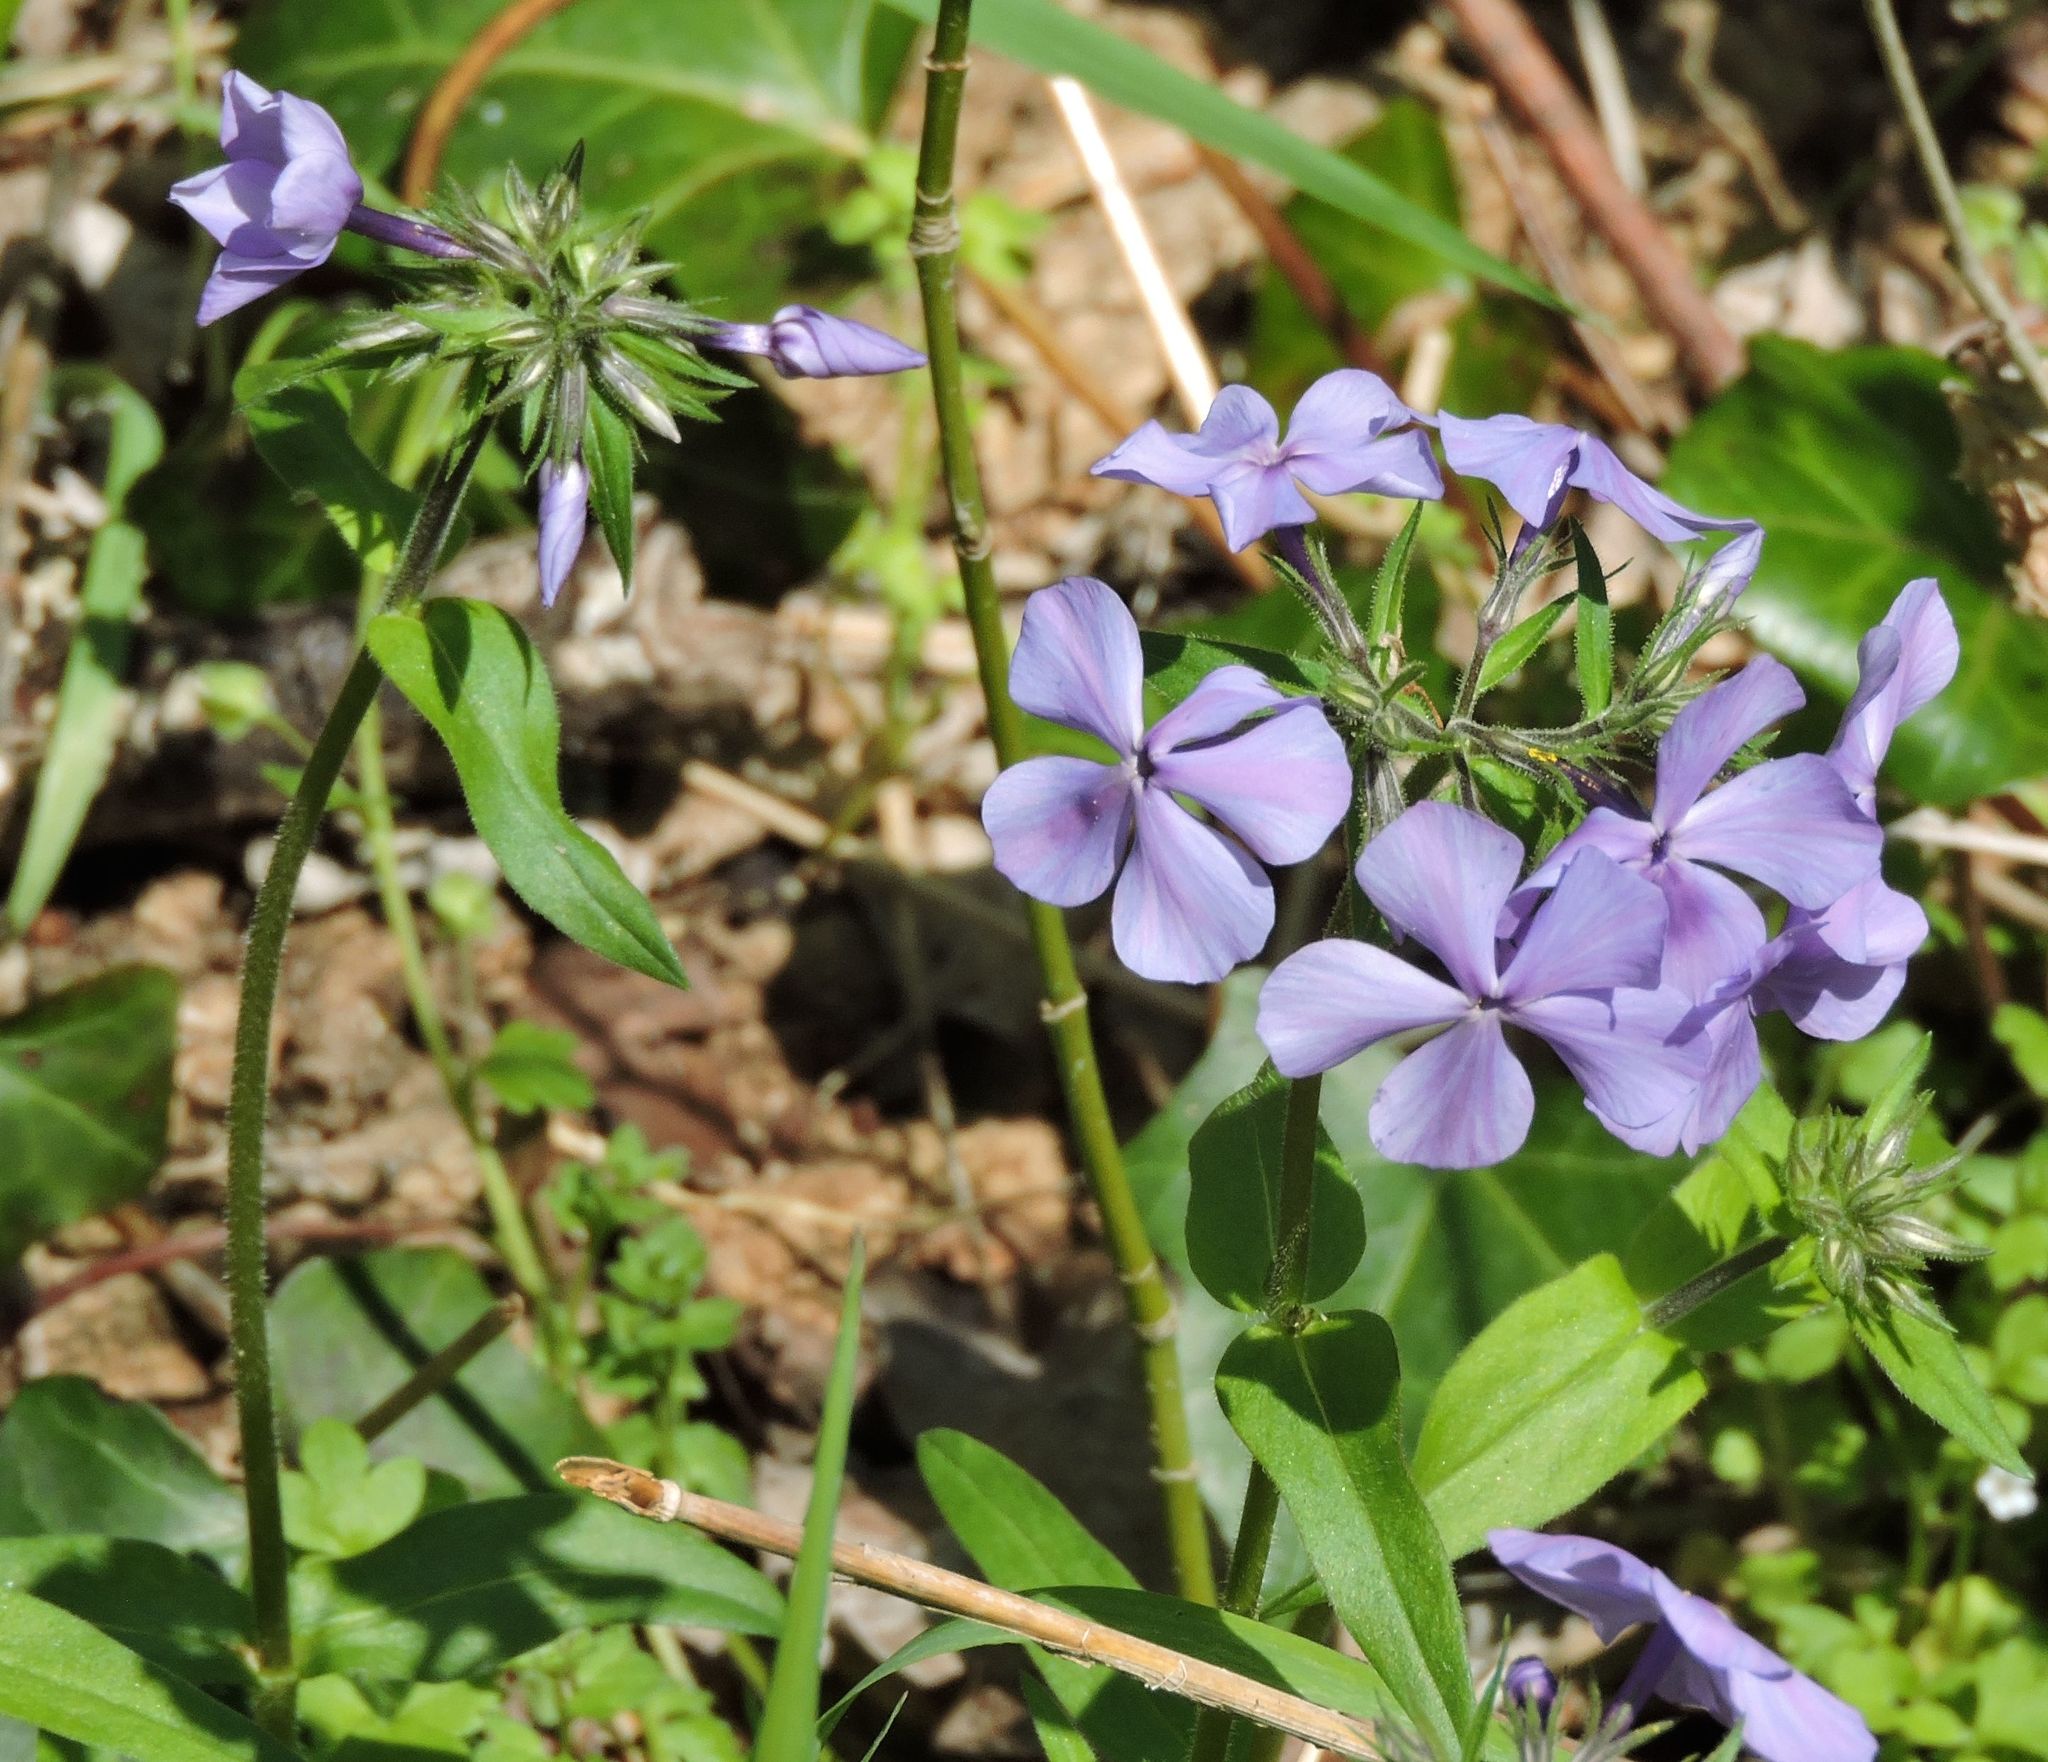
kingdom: Plantae
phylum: Tracheophyta
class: Magnoliopsida
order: Ericales
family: Polemoniaceae
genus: Phlox
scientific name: Phlox divaricata
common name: Blue phlox
